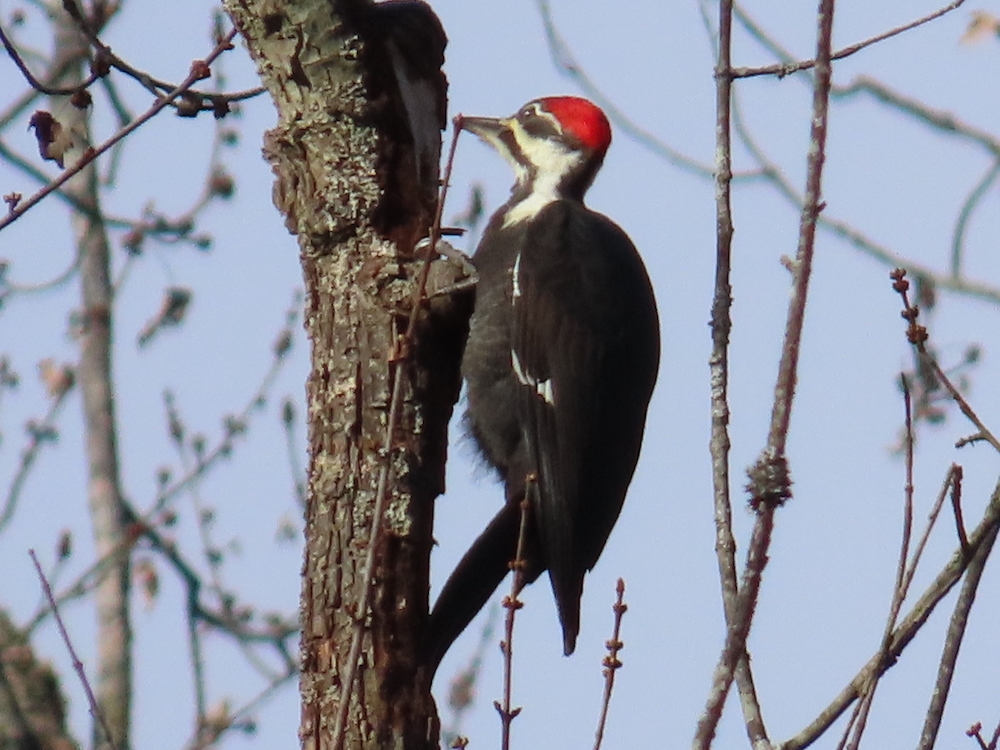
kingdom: Animalia
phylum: Chordata
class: Aves
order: Piciformes
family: Picidae
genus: Dryocopus
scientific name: Dryocopus pileatus
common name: Pileated woodpecker
